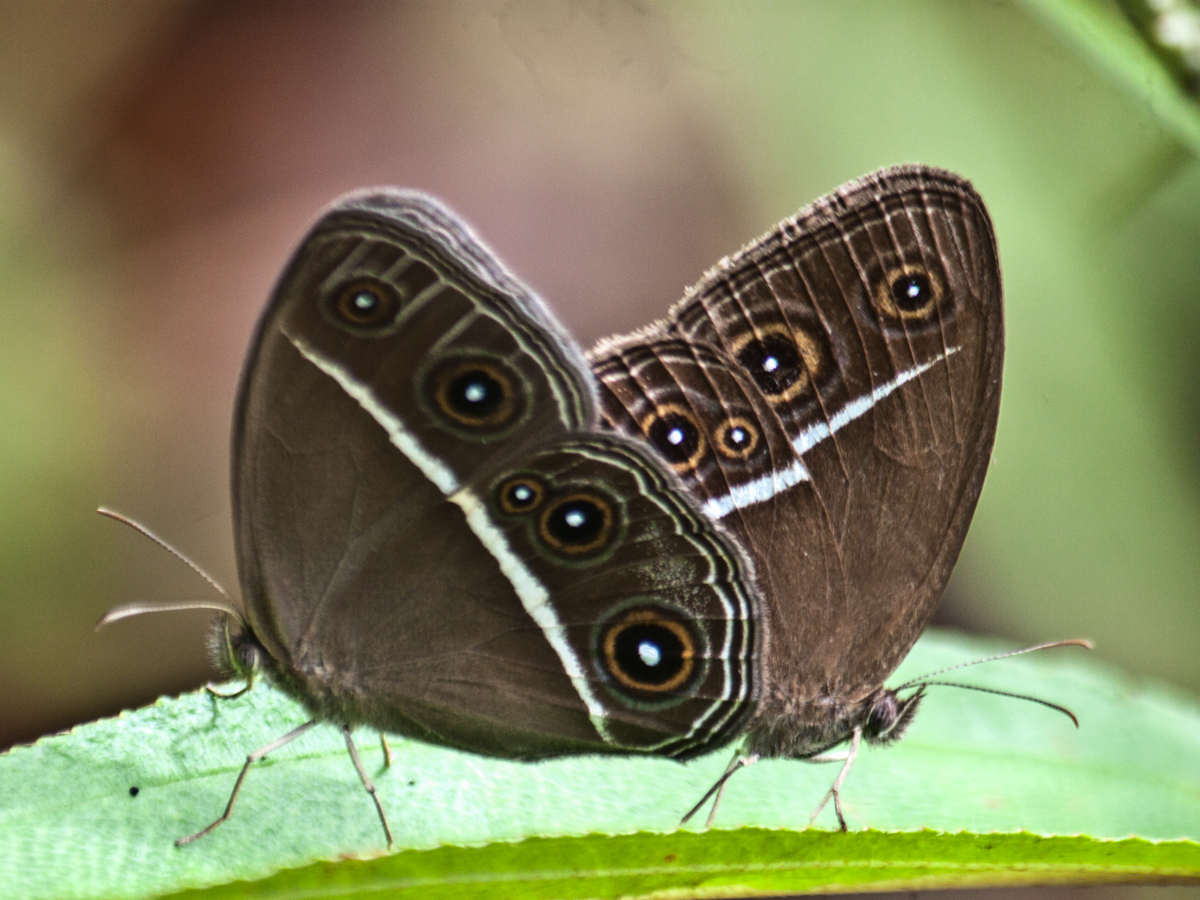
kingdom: Animalia
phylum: Arthropoda
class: Insecta
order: Lepidoptera
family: Nymphalidae
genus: Orsotriaena
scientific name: Orsotriaena medus
